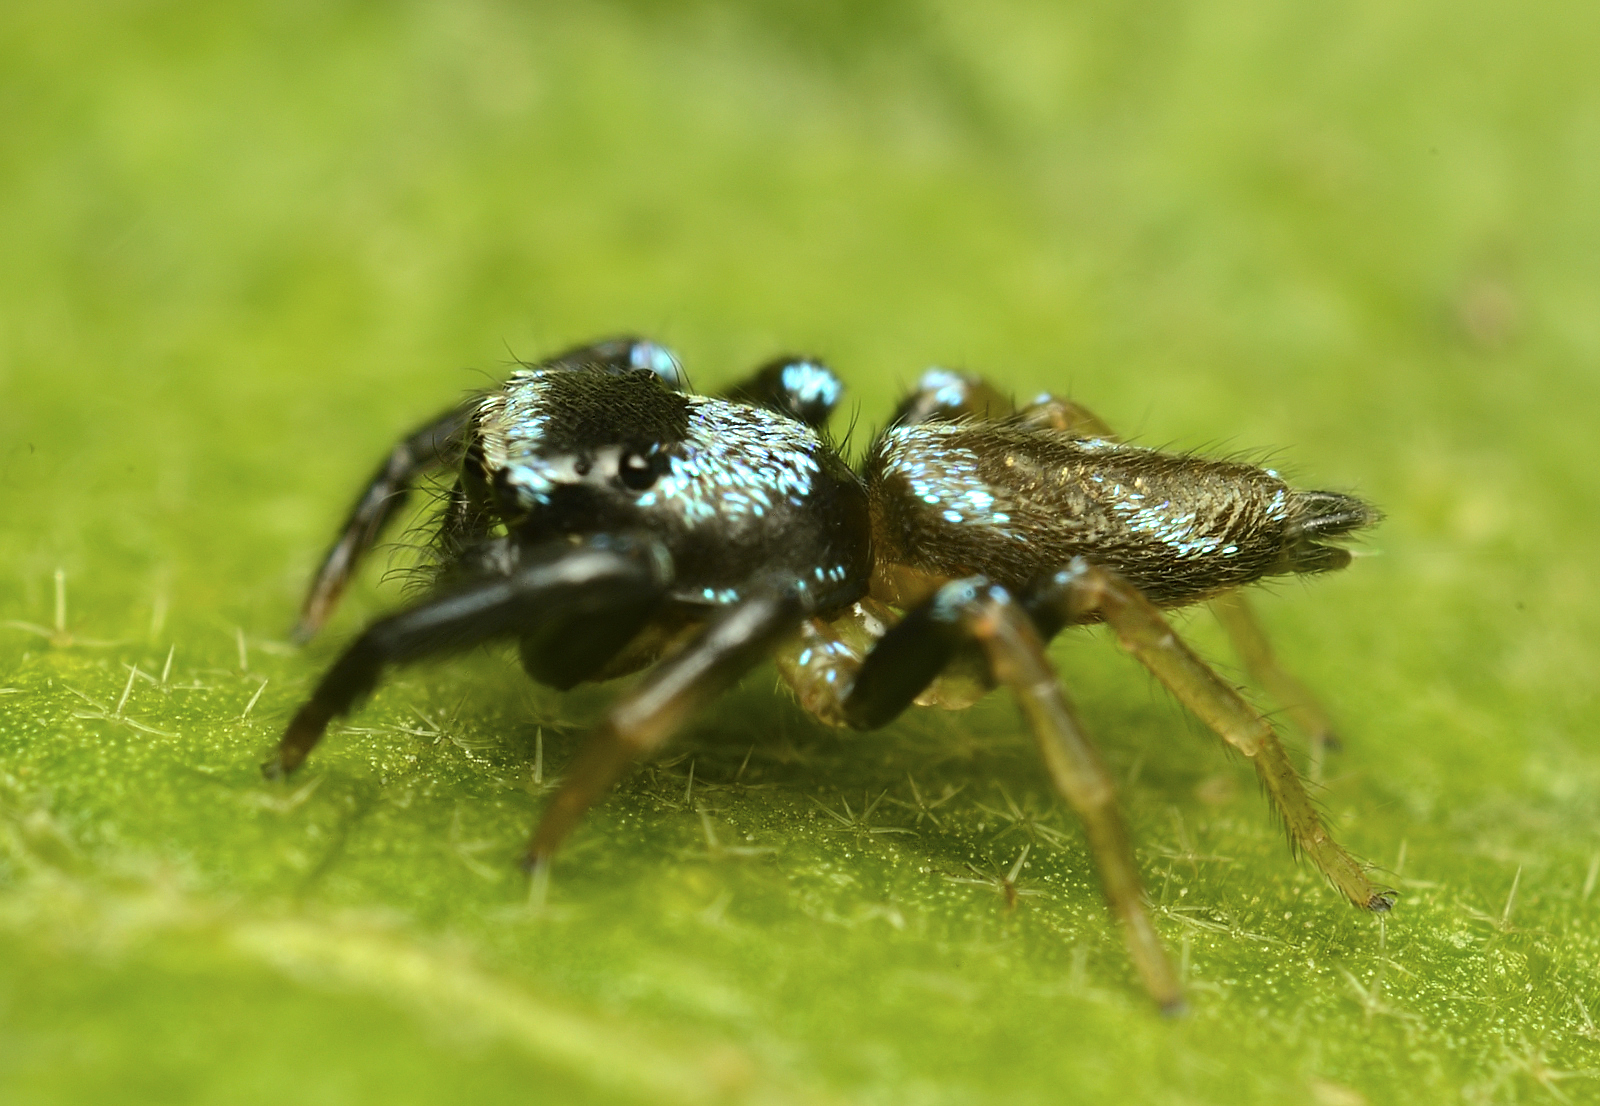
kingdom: Animalia
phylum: Arthropoda
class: Arachnida
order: Araneae
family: Salticidae
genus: Thiania
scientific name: Thiania bhamoensis
